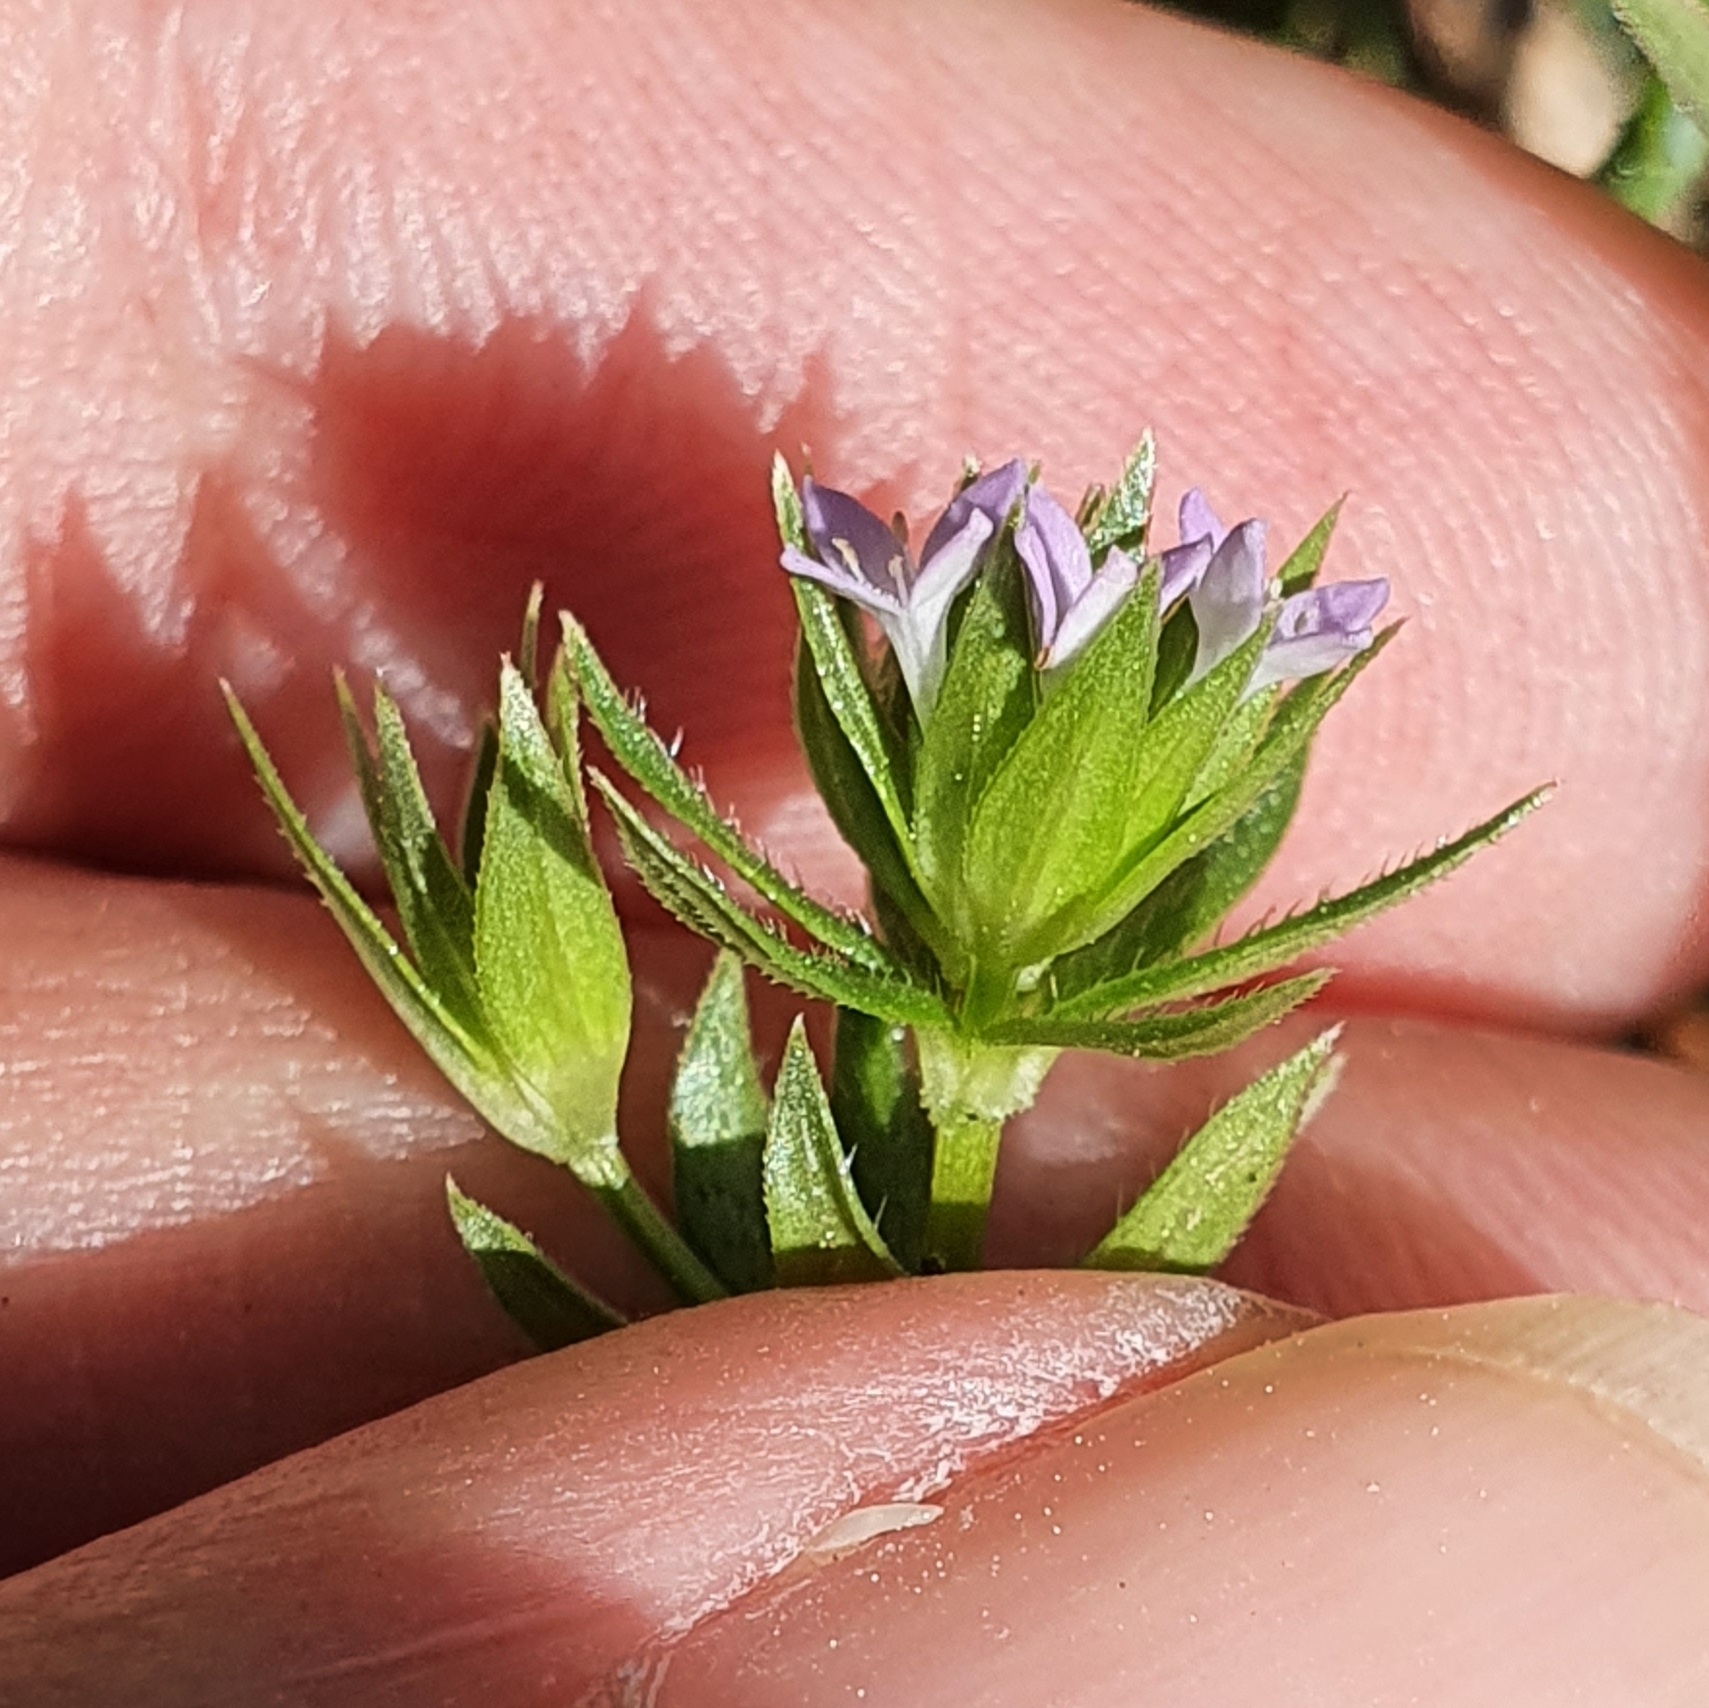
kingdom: Plantae
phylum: Tracheophyta
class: Magnoliopsida
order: Gentianales
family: Rubiaceae
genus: Sherardia
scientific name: Sherardia arvensis
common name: Field madder
